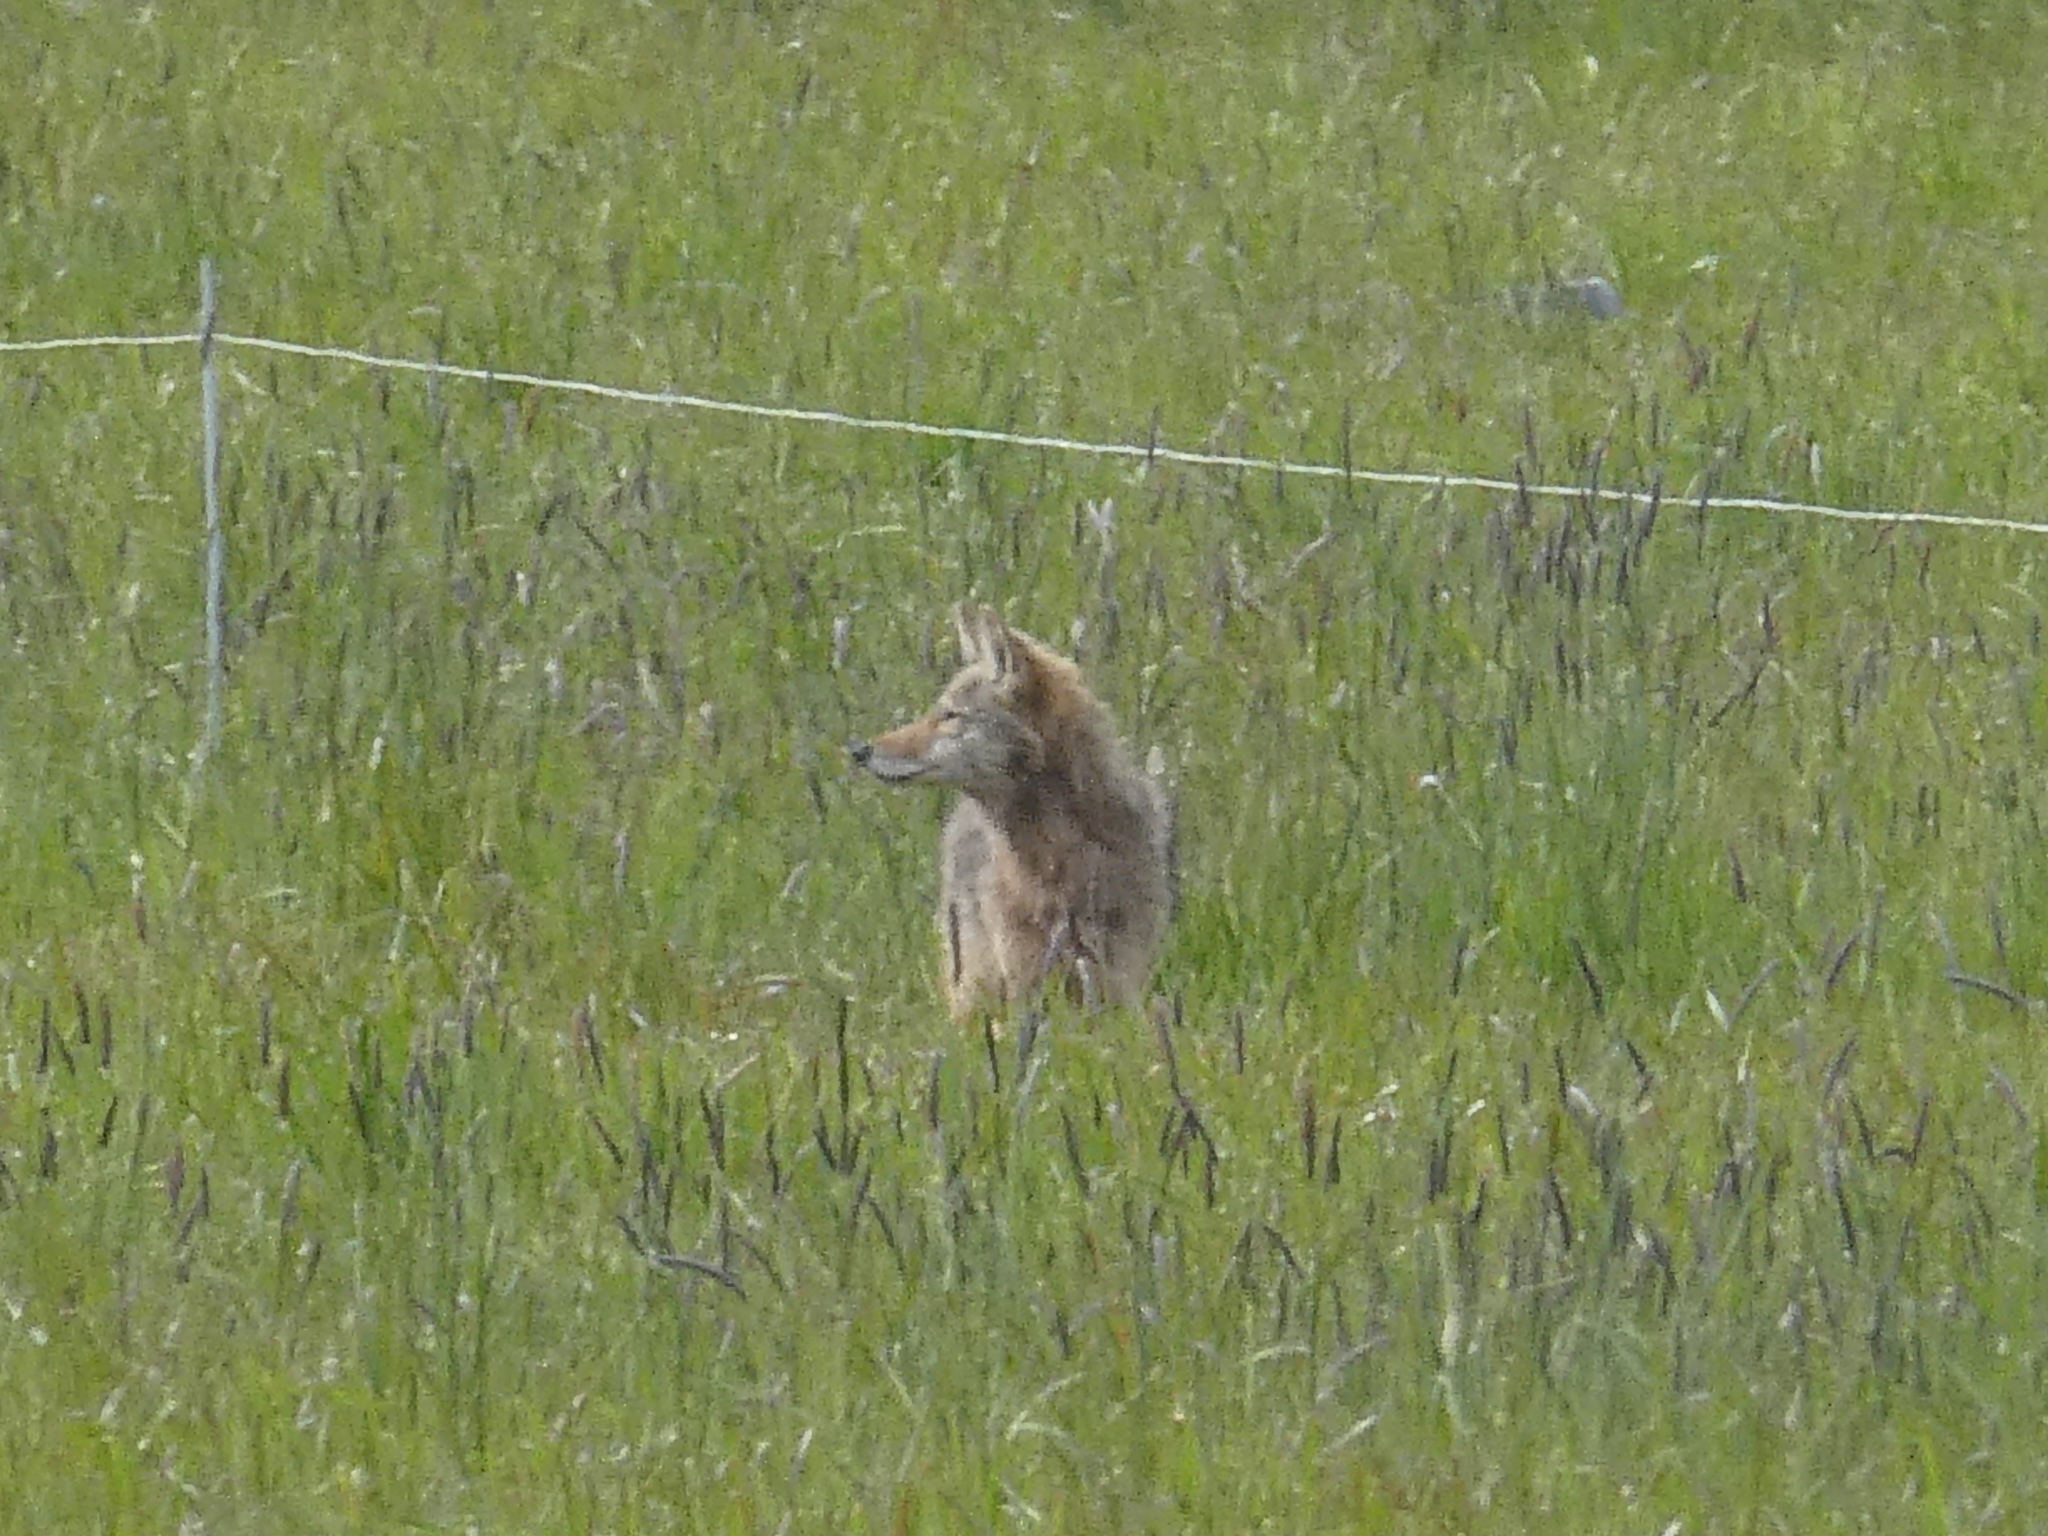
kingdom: Animalia
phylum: Chordata
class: Mammalia
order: Carnivora
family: Canidae
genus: Canis
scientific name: Canis latrans
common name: Coyote
